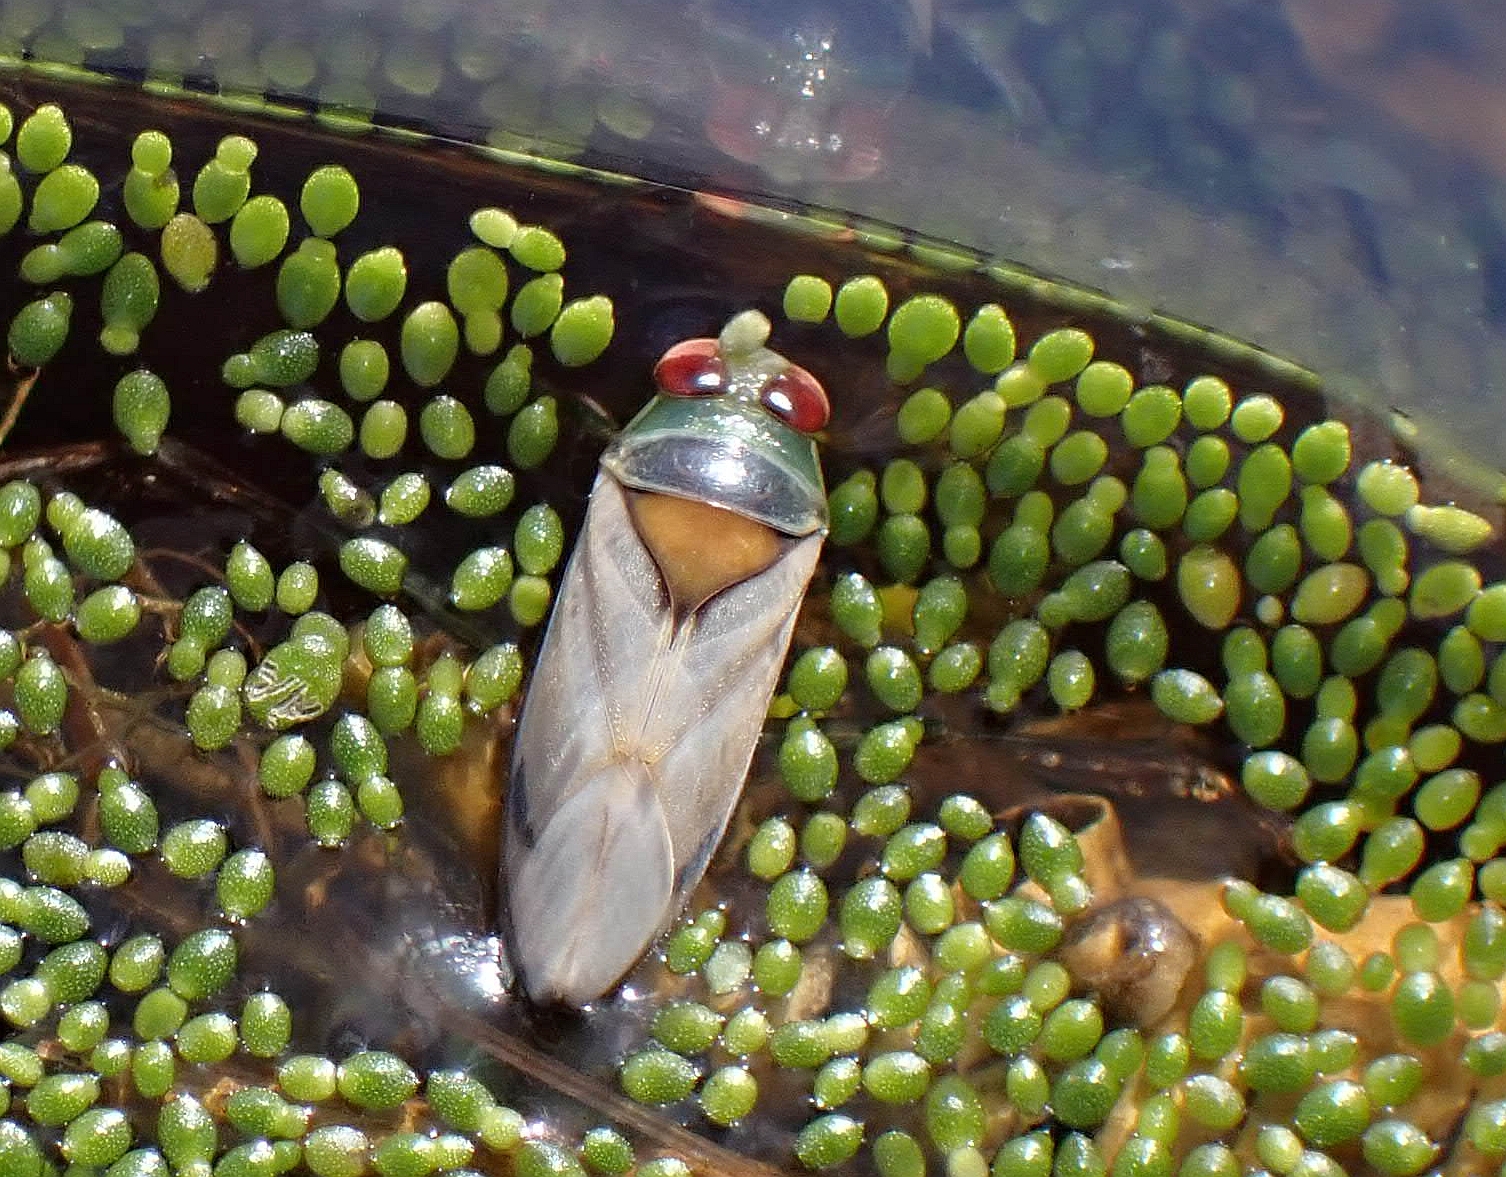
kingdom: Animalia
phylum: Arthropoda
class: Insecta
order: Hemiptera
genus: Paranecta
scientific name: Paranecta
